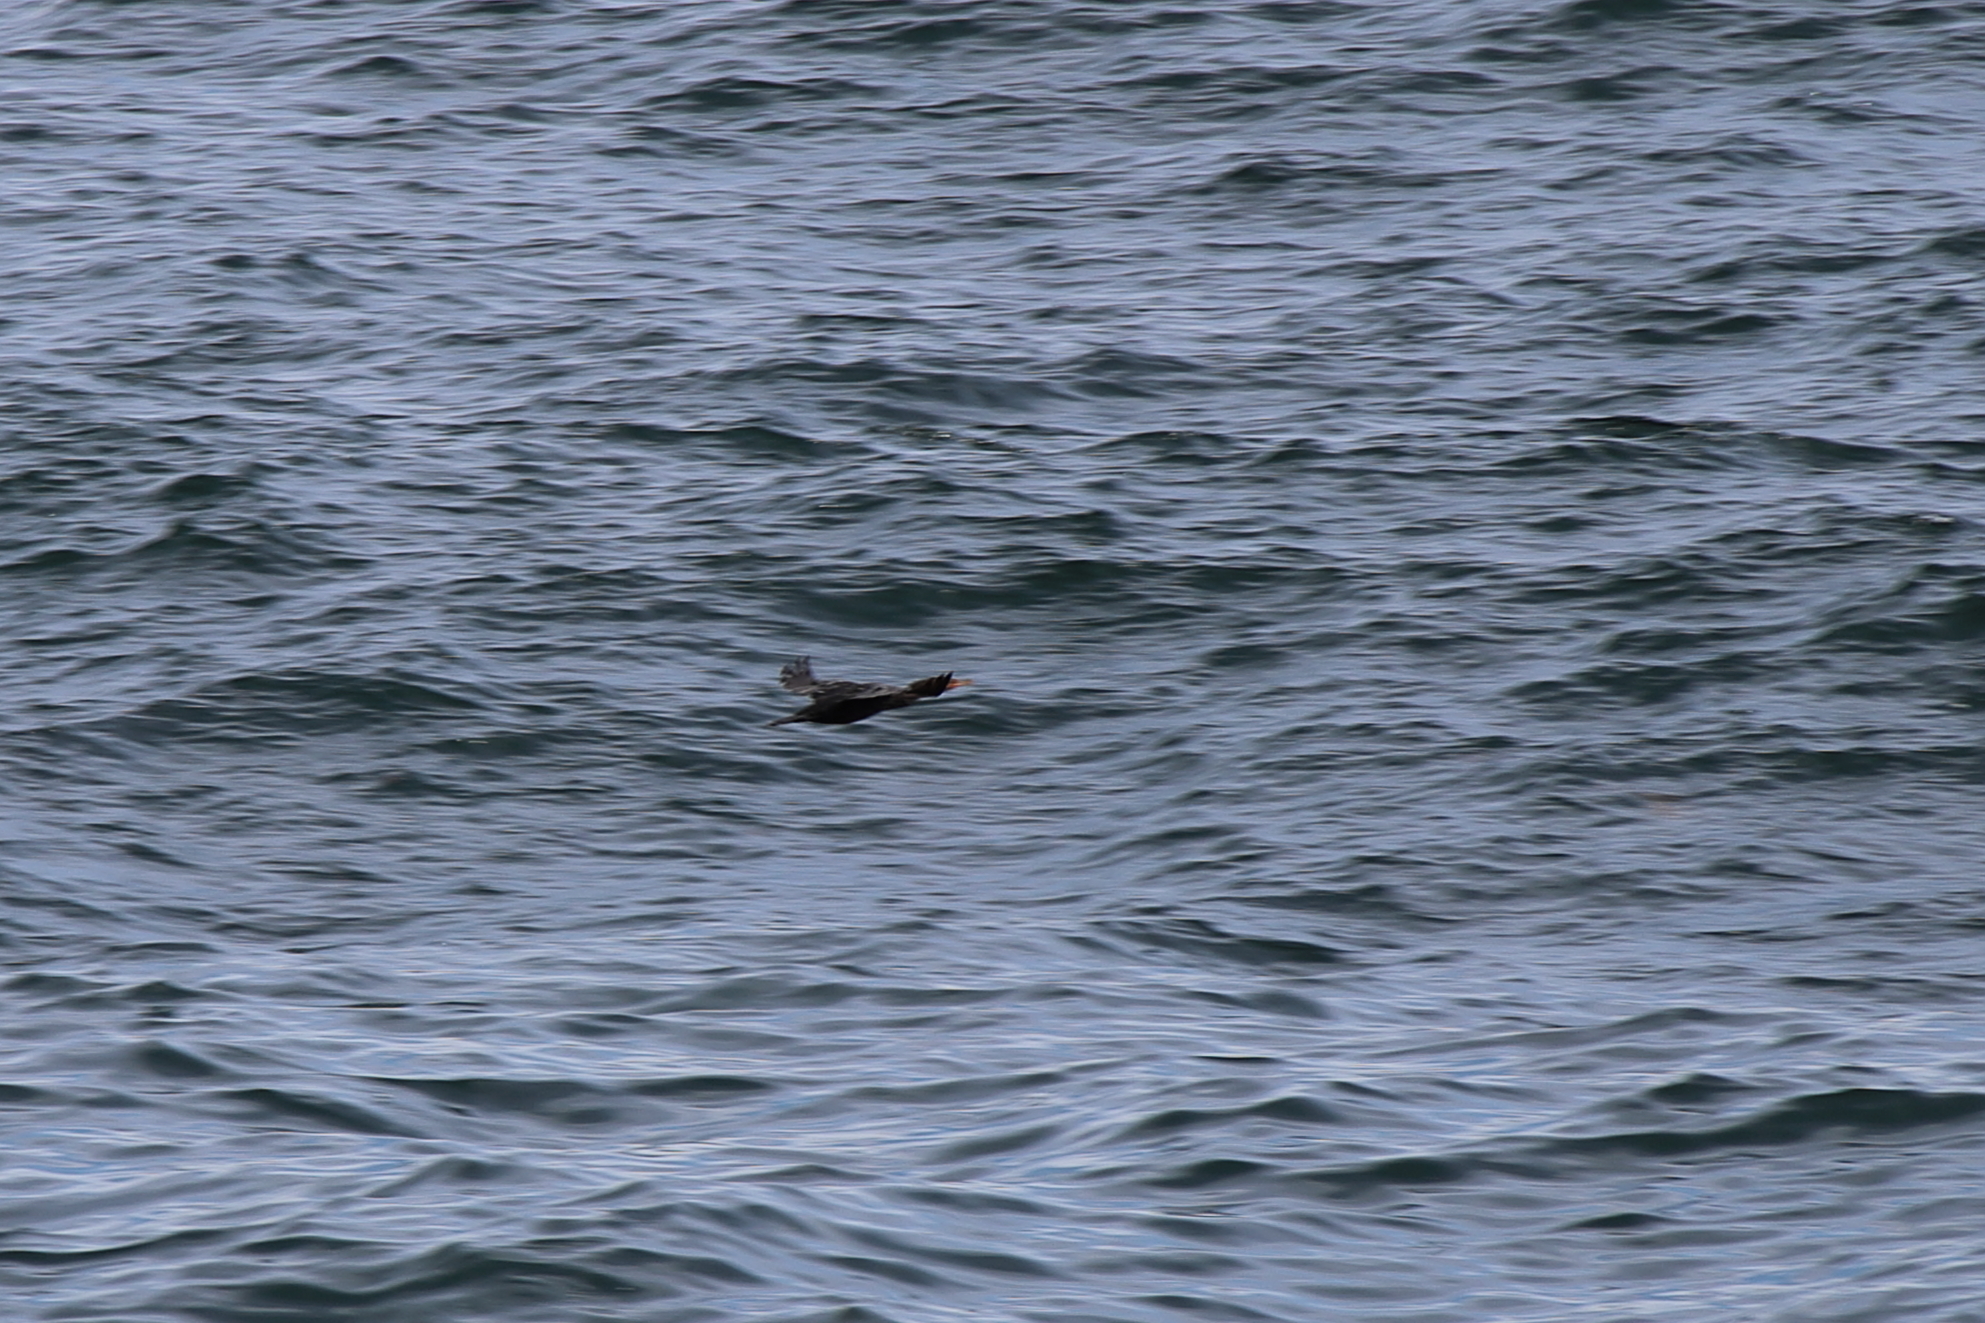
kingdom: Animalia
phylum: Chordata
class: Aves
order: Suliformes
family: Phalacrocoracidae
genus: Phalacrocorax
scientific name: Phalacrocorax auritus
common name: Double-crested cormorant
